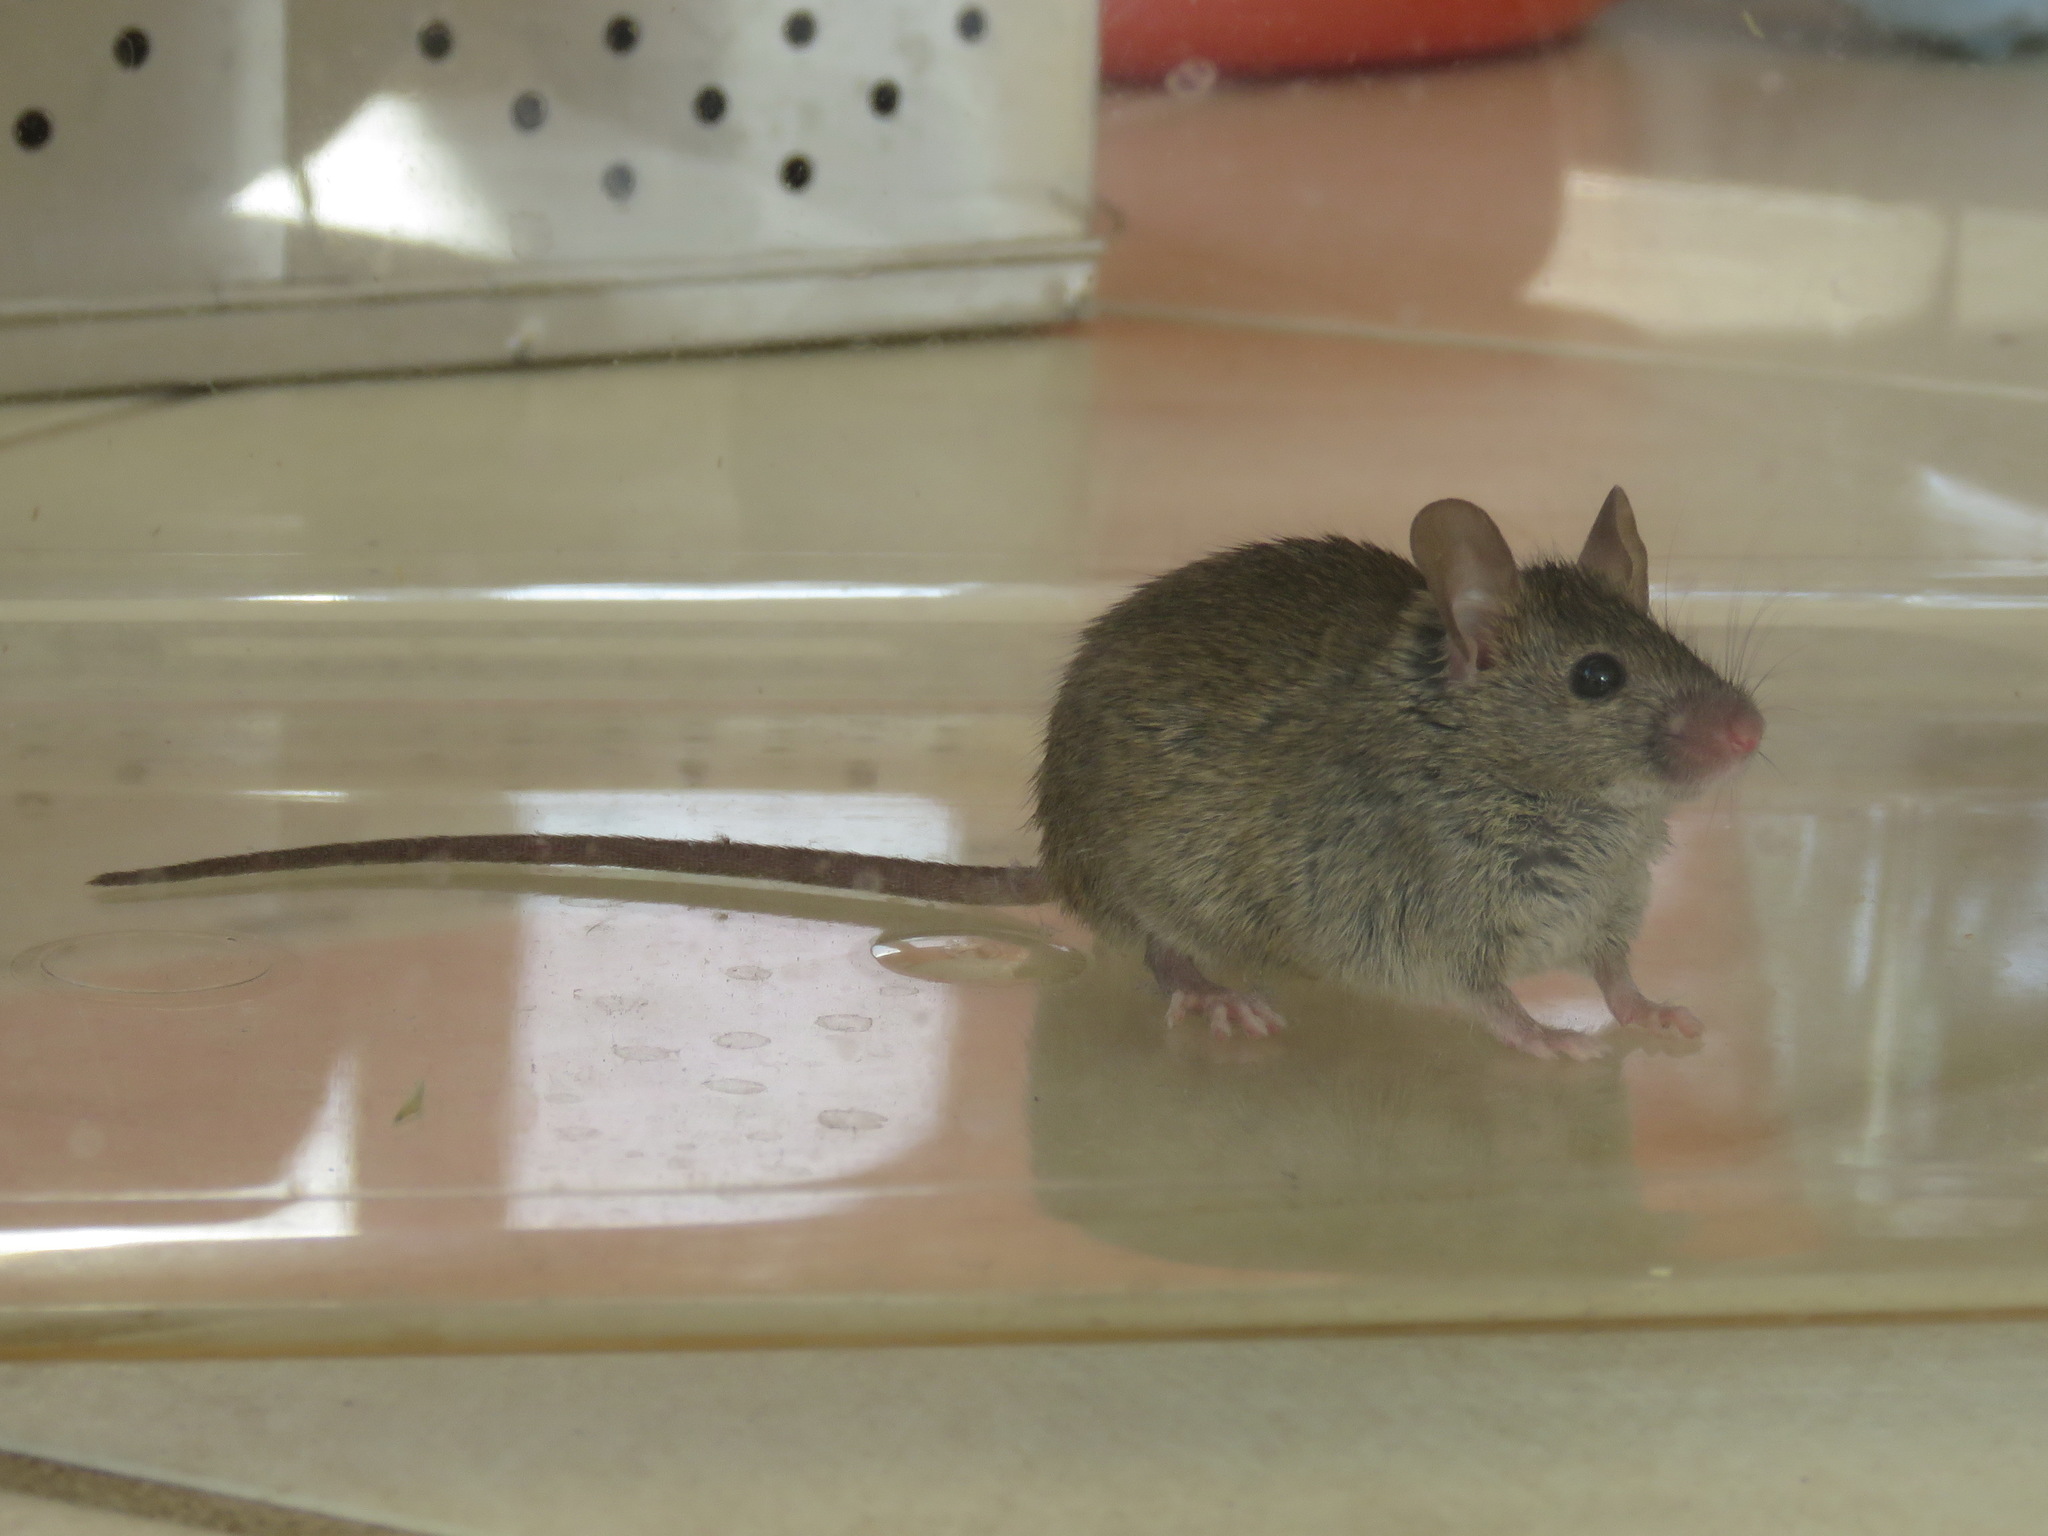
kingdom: Animalia
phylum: Chordata
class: Mammalia
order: Rodentia
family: Muridae
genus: Mus
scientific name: Mus musculus
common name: House mouse
